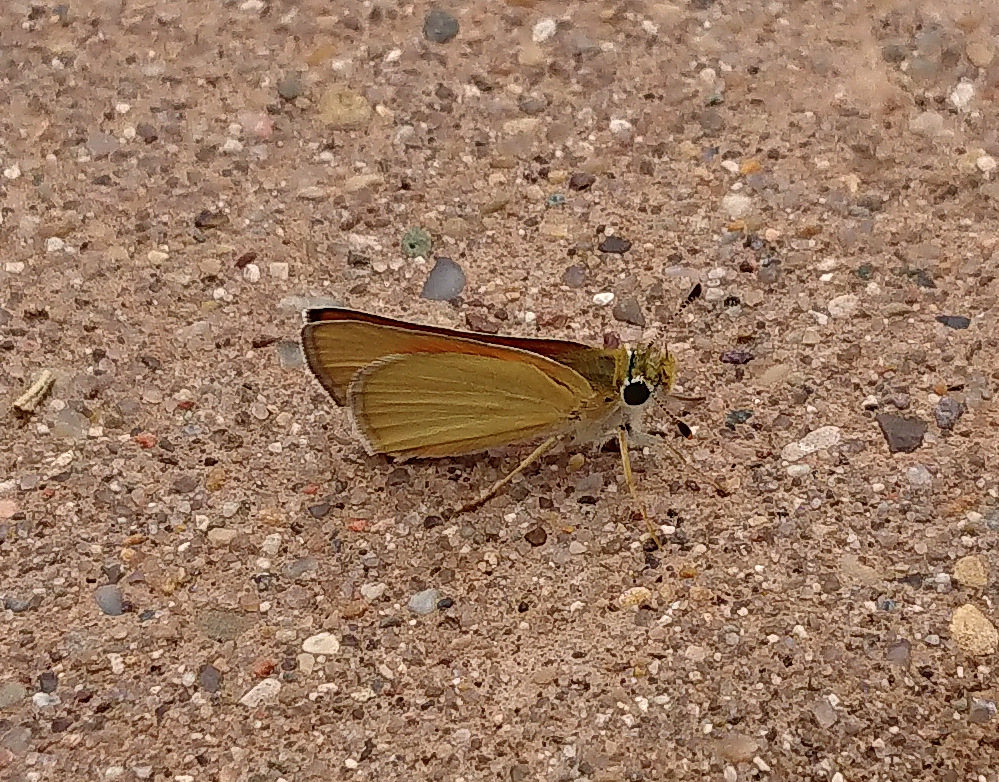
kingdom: Animalia
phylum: Arthropoda
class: Insecta
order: Lepidoptera
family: Hesperiidae
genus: Copaeodes
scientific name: Copaeodes aurantiaca
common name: Orange skipperling
